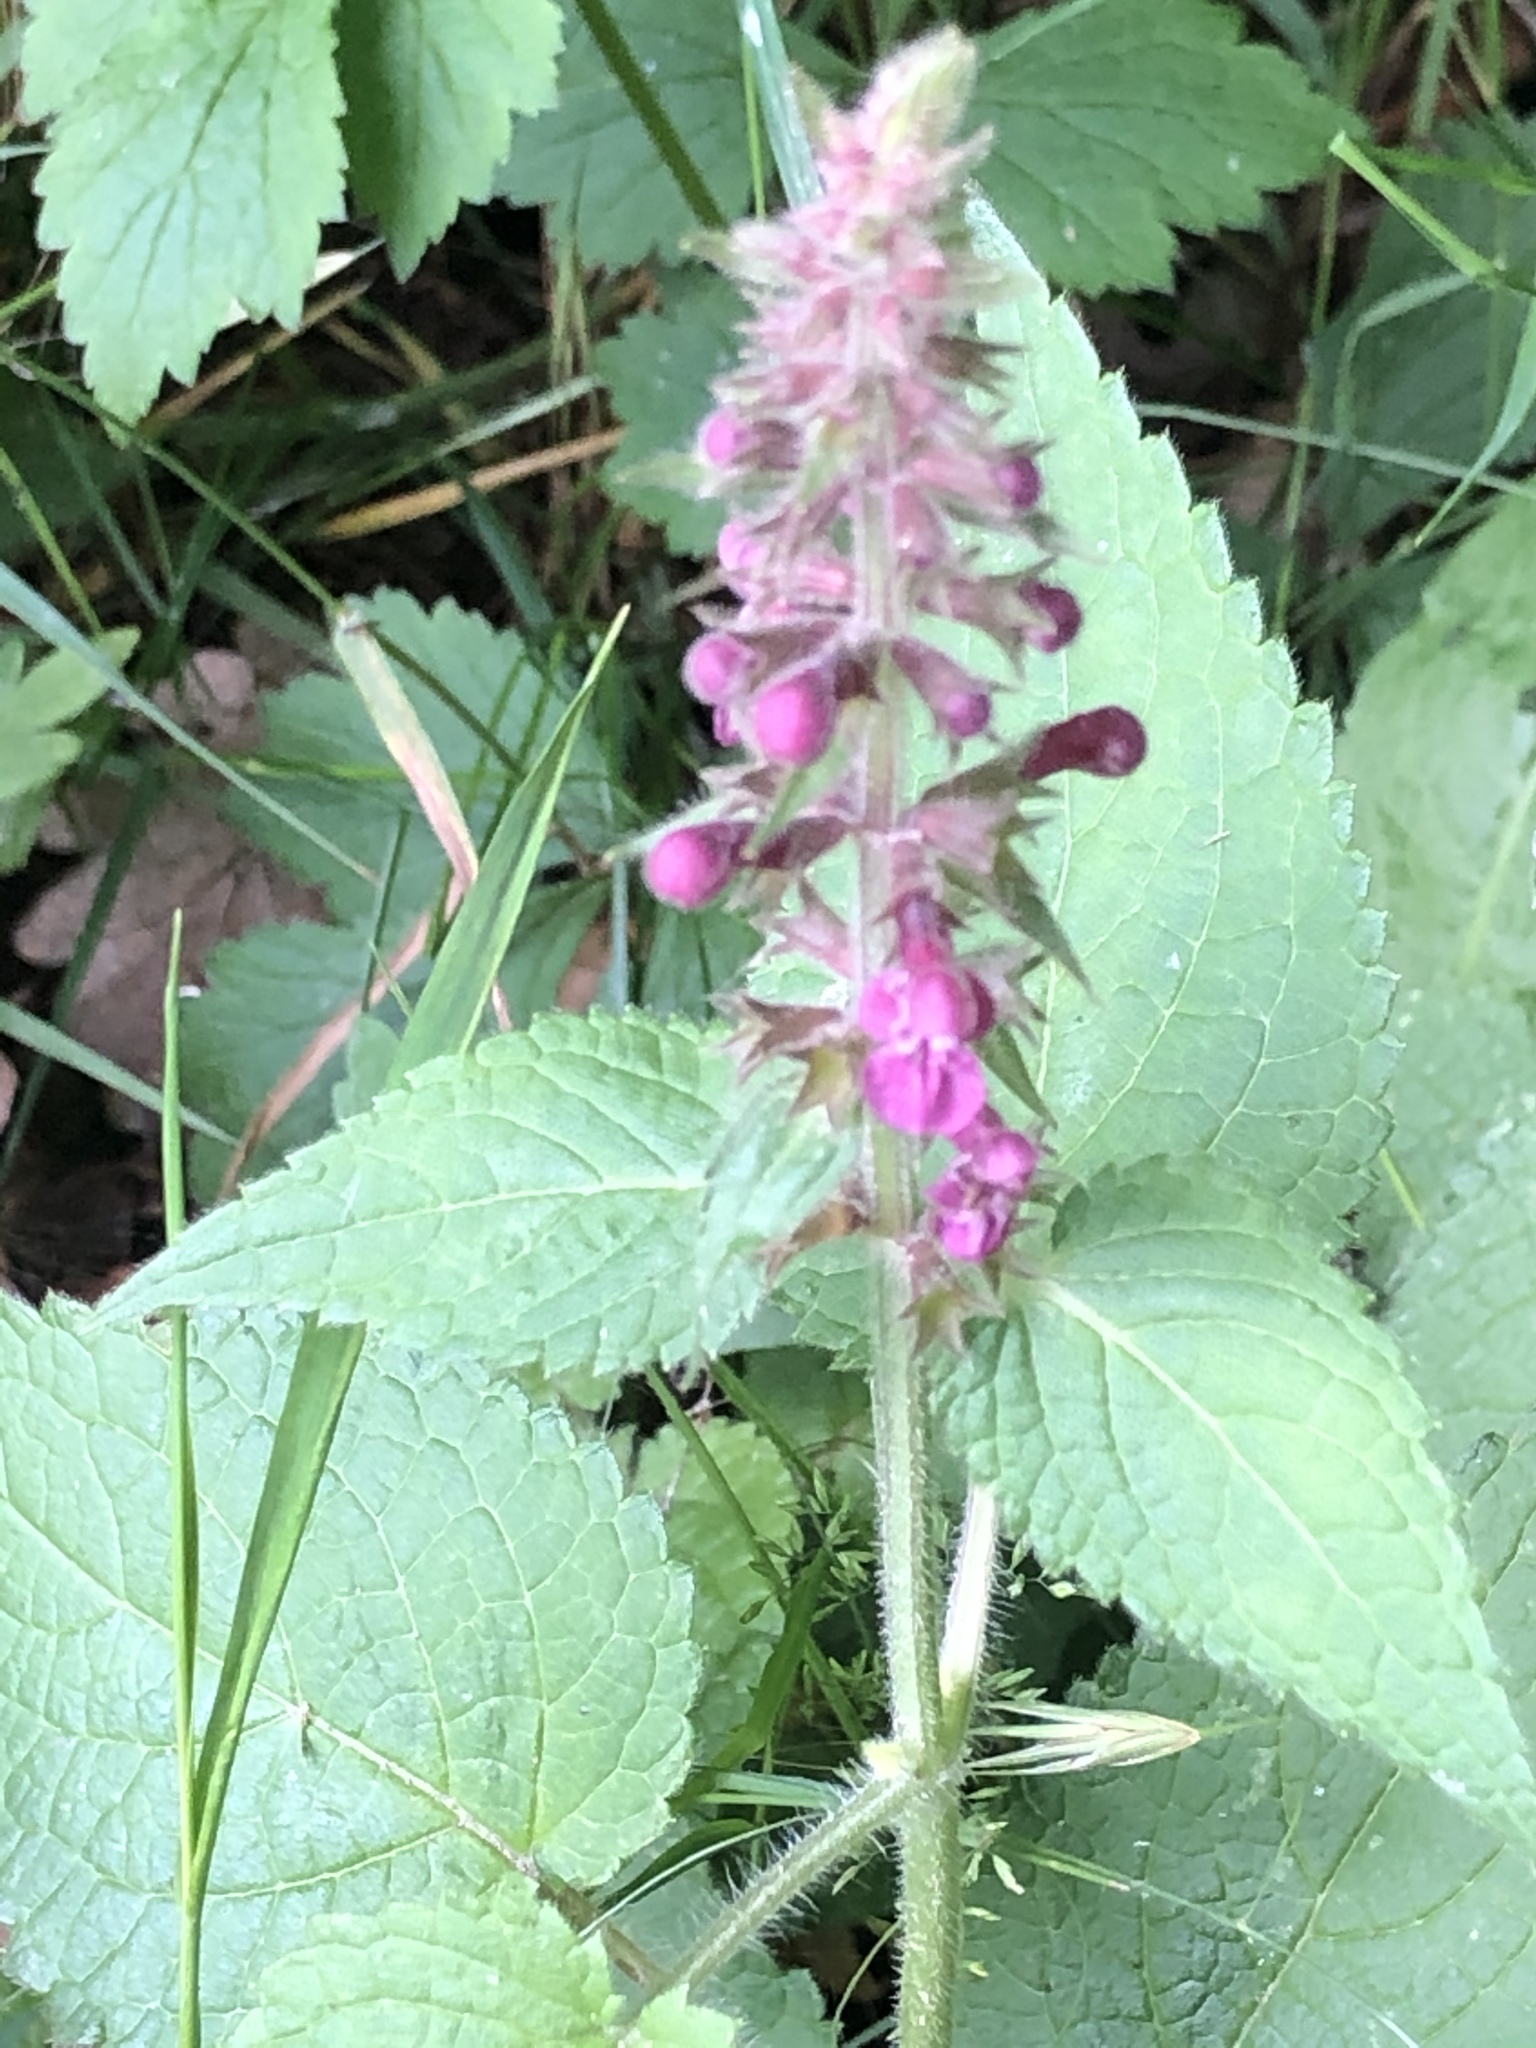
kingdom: Plantae
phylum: Tracheophyta
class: Magnoliopsida
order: Lamiales
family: Lamiaceae
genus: Stachys
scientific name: Stachys sylvatica
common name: Hedge woundwort
